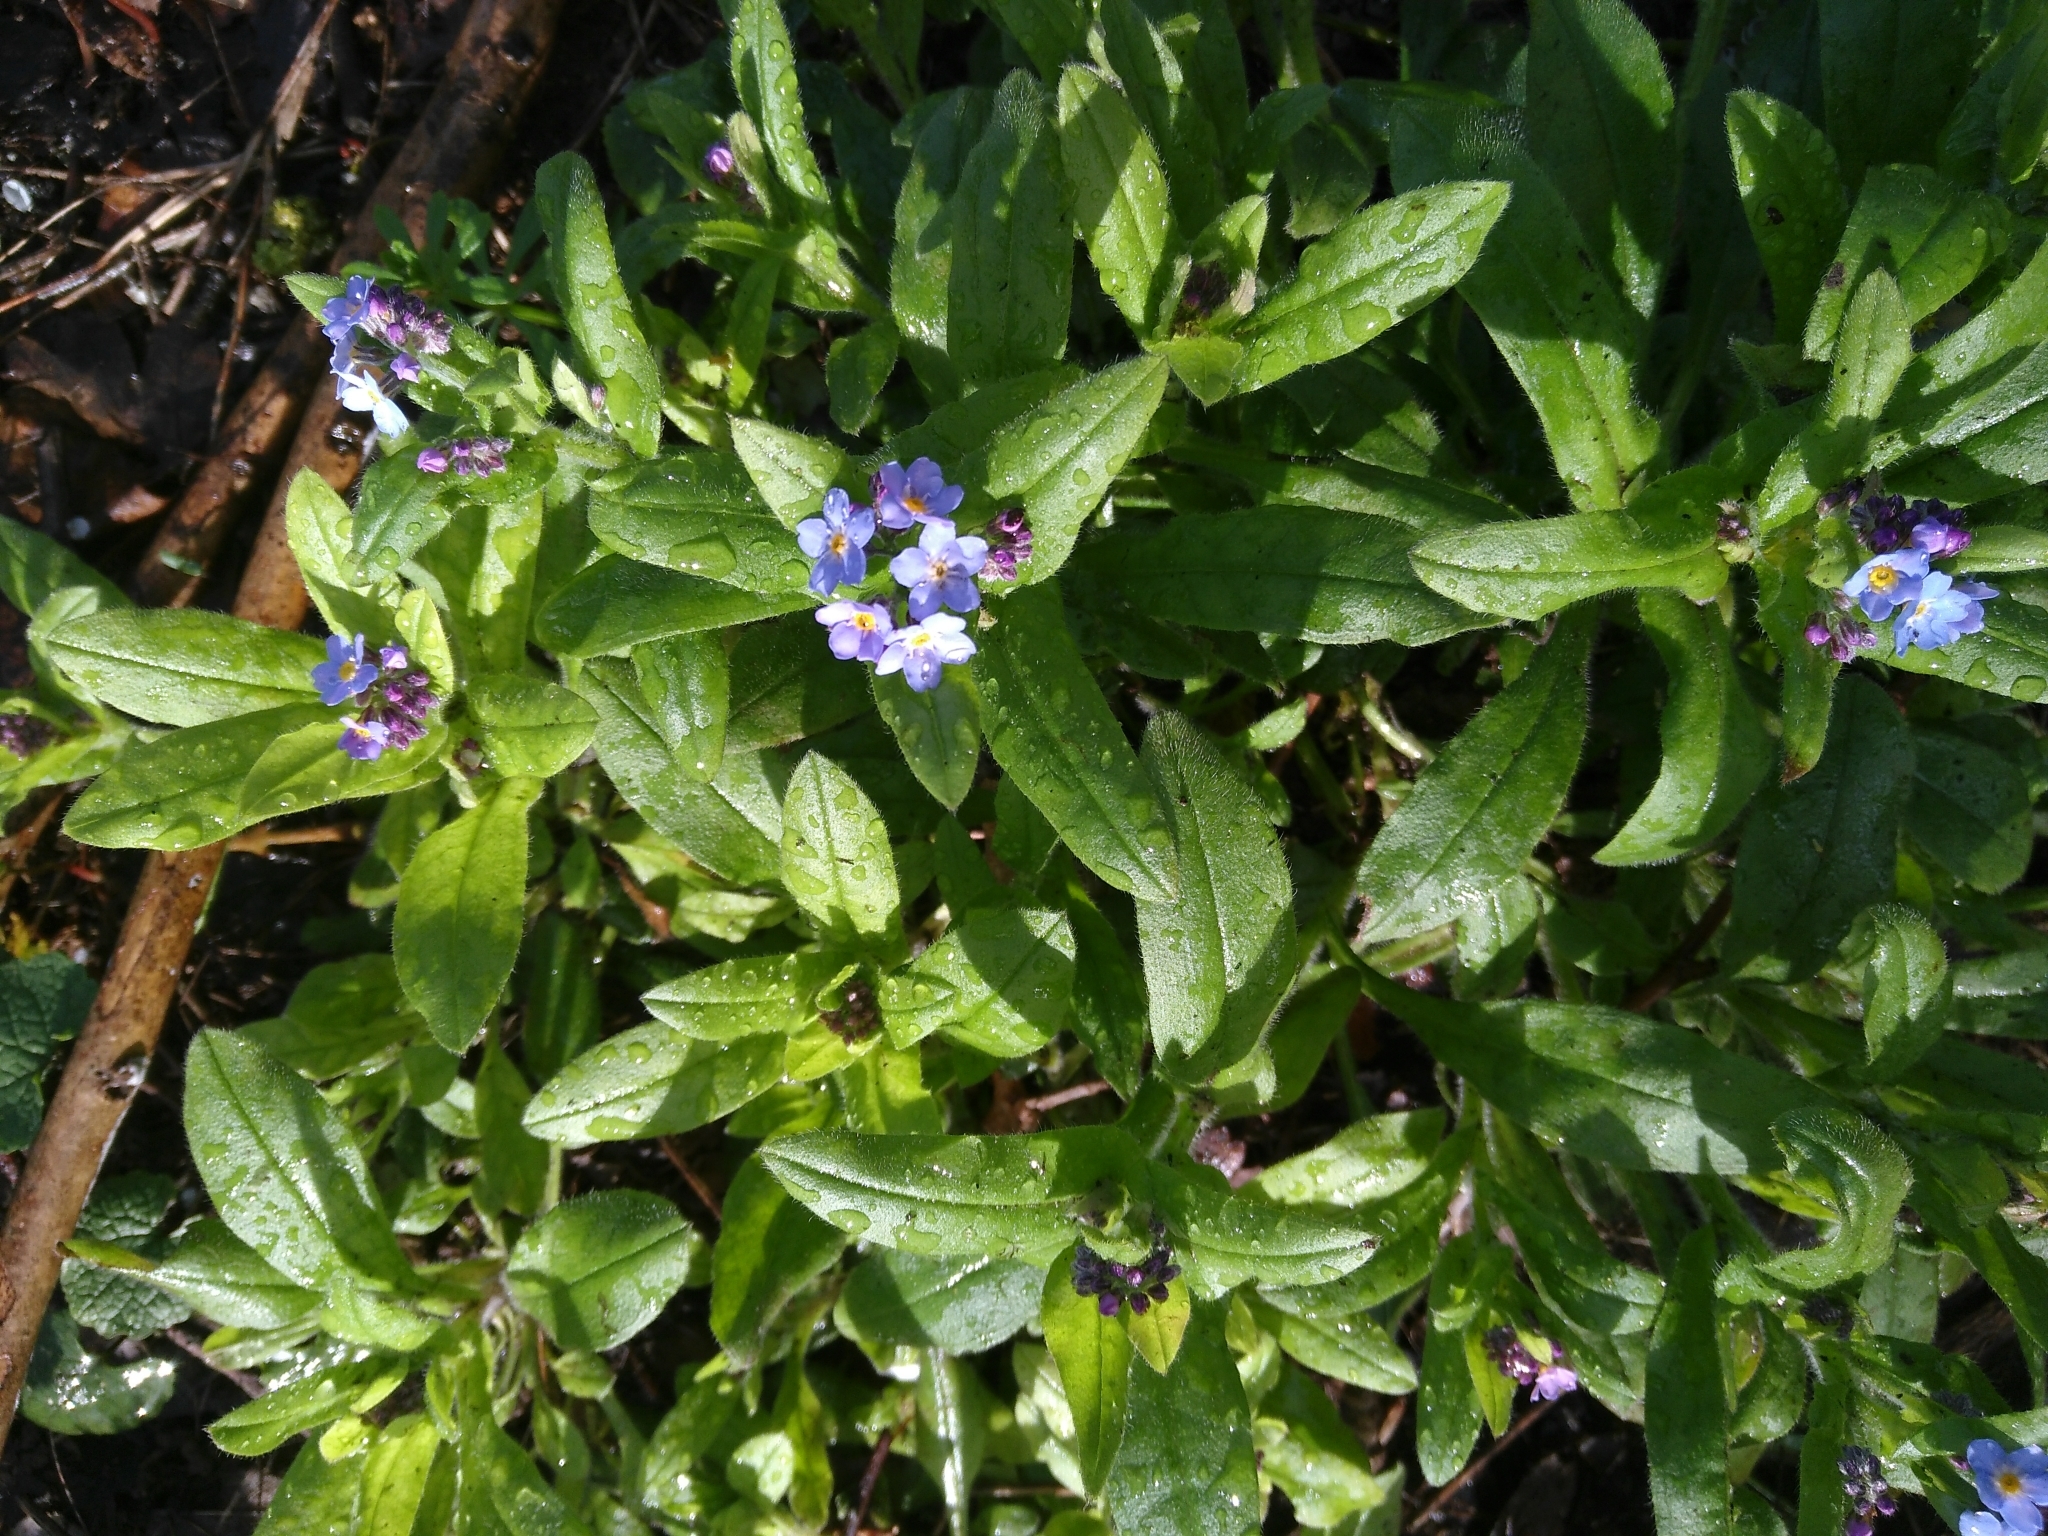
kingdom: Plantae
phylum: Tracheophyta
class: Magnoliopsida
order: Boraginales
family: Boraginaceae
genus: Myosotis
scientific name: Myosotis sylvatica
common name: Wood forget-me-not
